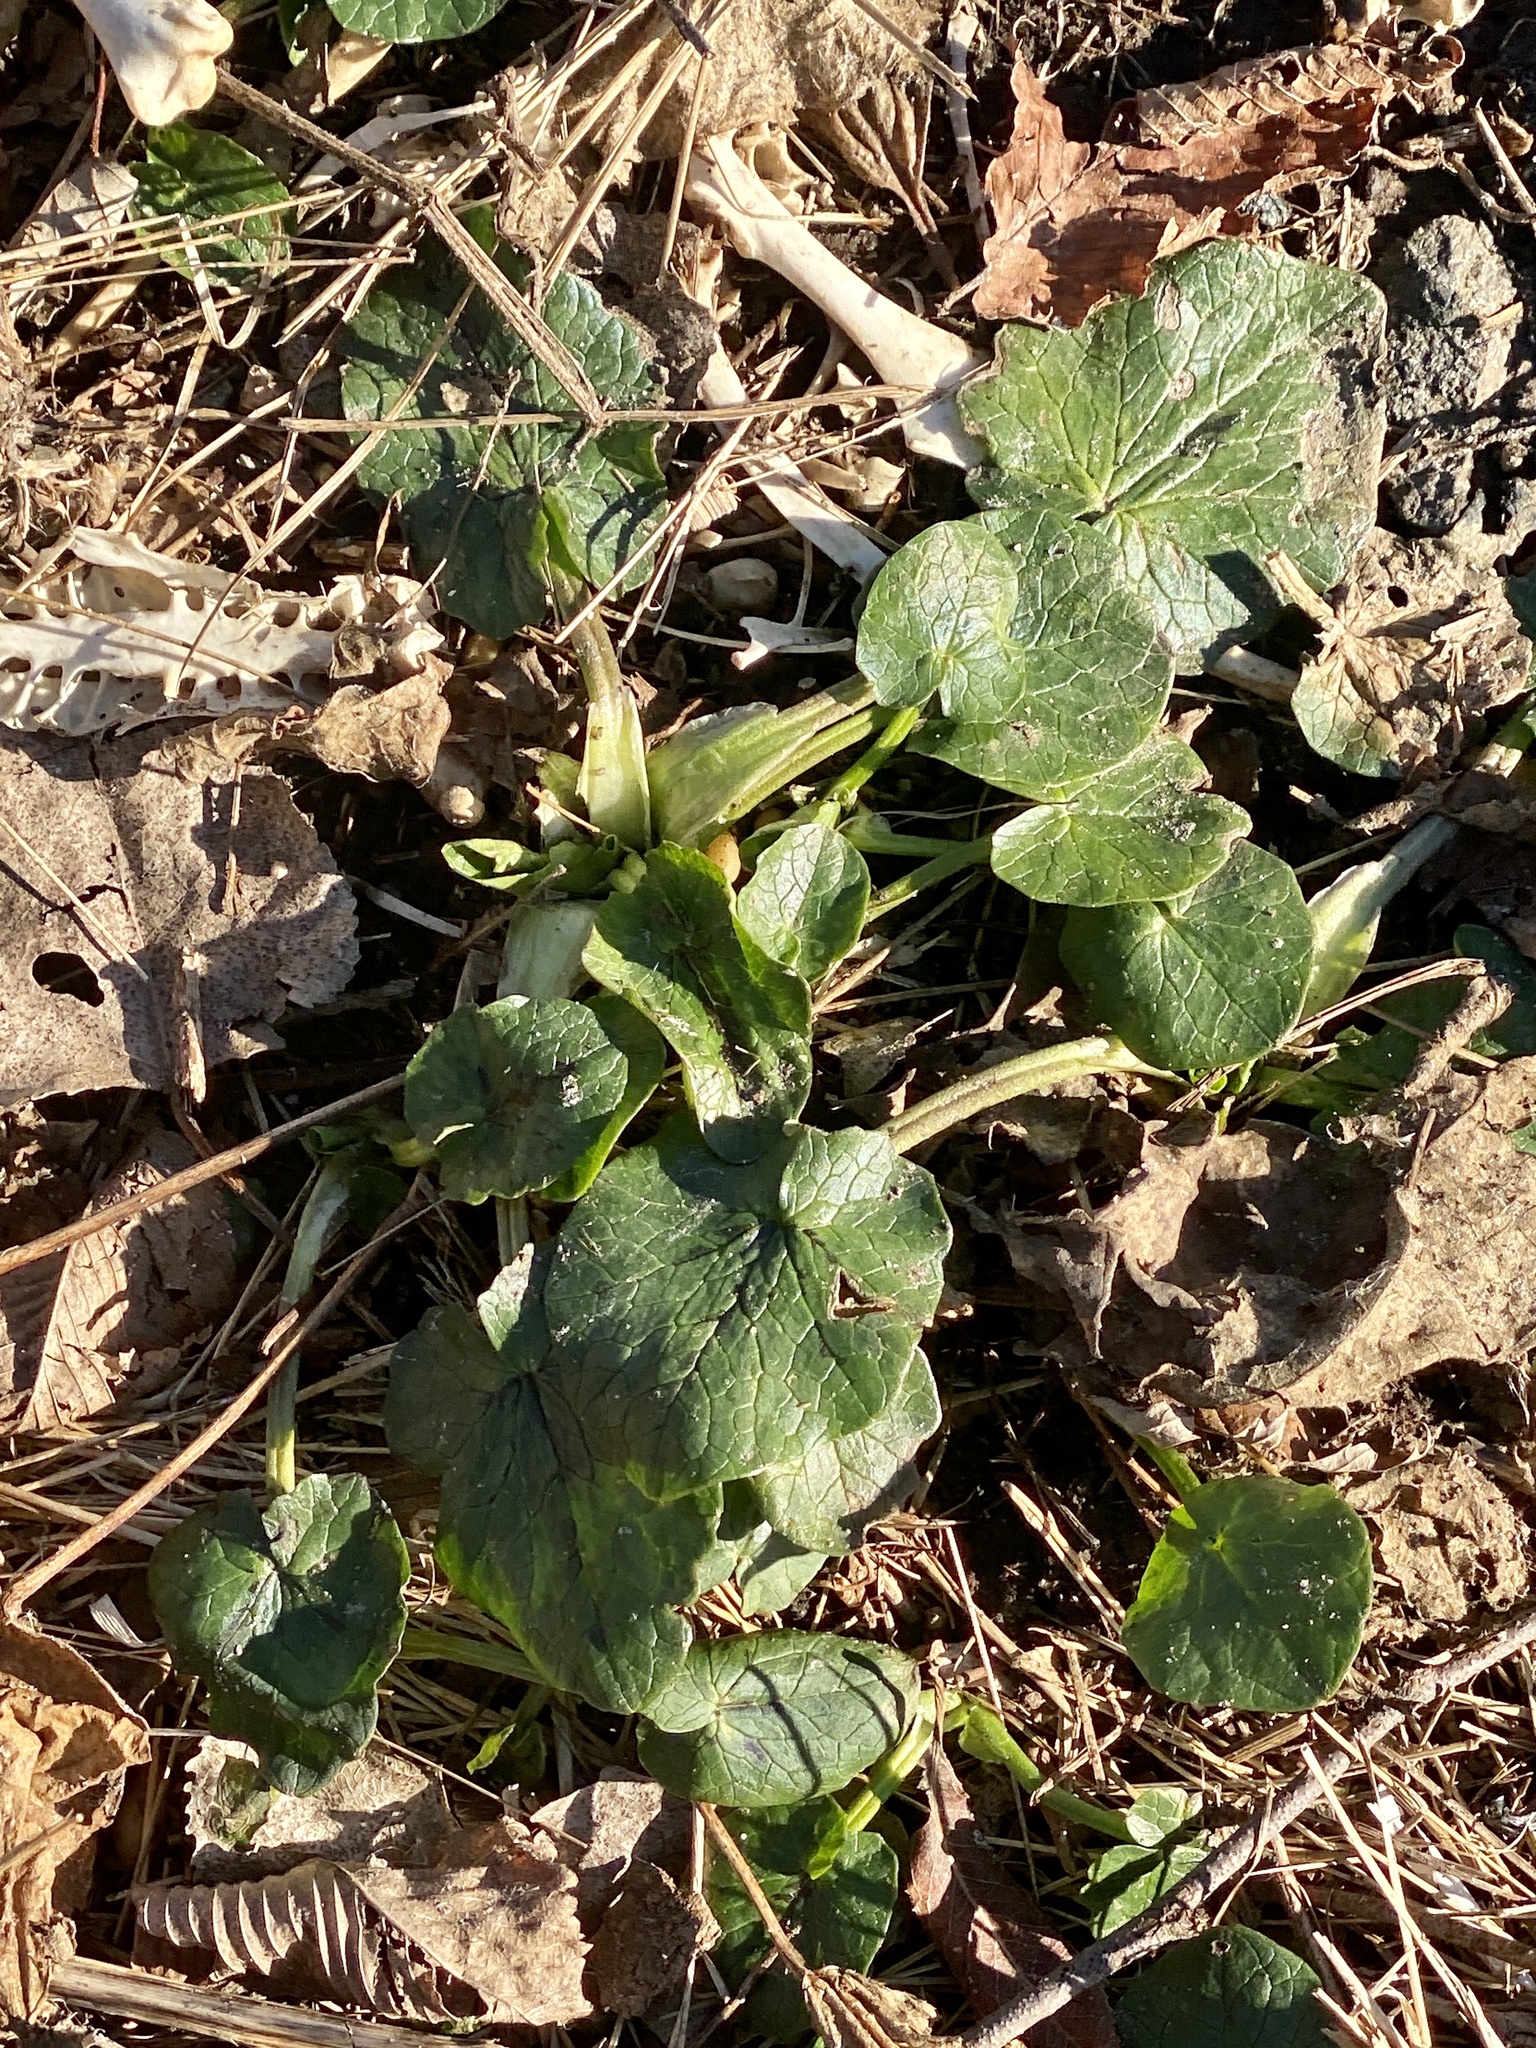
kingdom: Plantae
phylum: Tracheophyta
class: Magnoliopsida
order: Ranunculales
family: Ranunculaceae
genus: Ficaria
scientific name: Ficaria verna
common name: Lesser celandine
